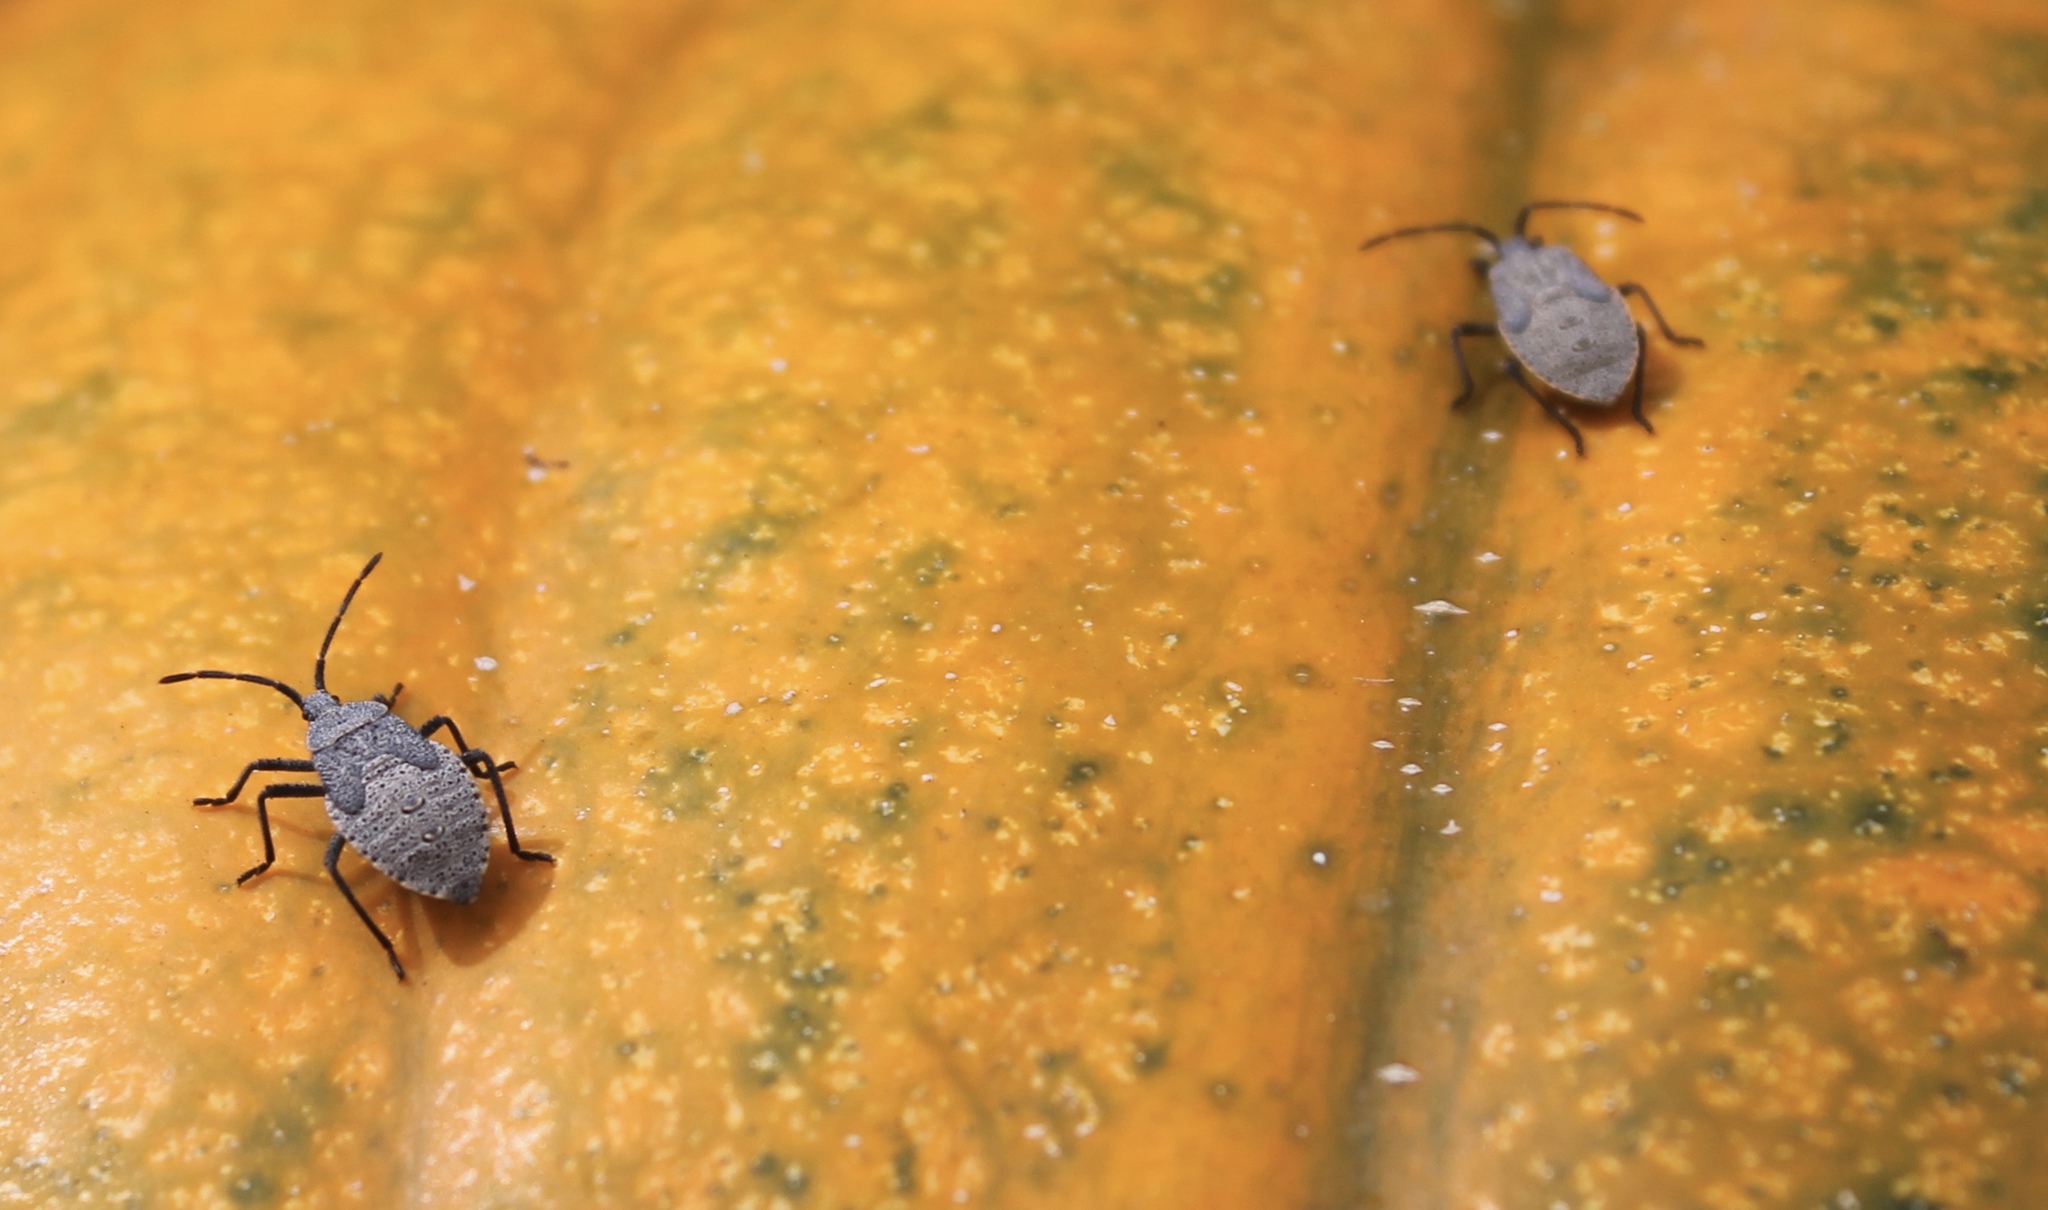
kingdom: Animalia
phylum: Arthropoda
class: Insecta
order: Hemiptera
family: Coreidae
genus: Anasa
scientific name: Anasa tristis
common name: Squash bug
